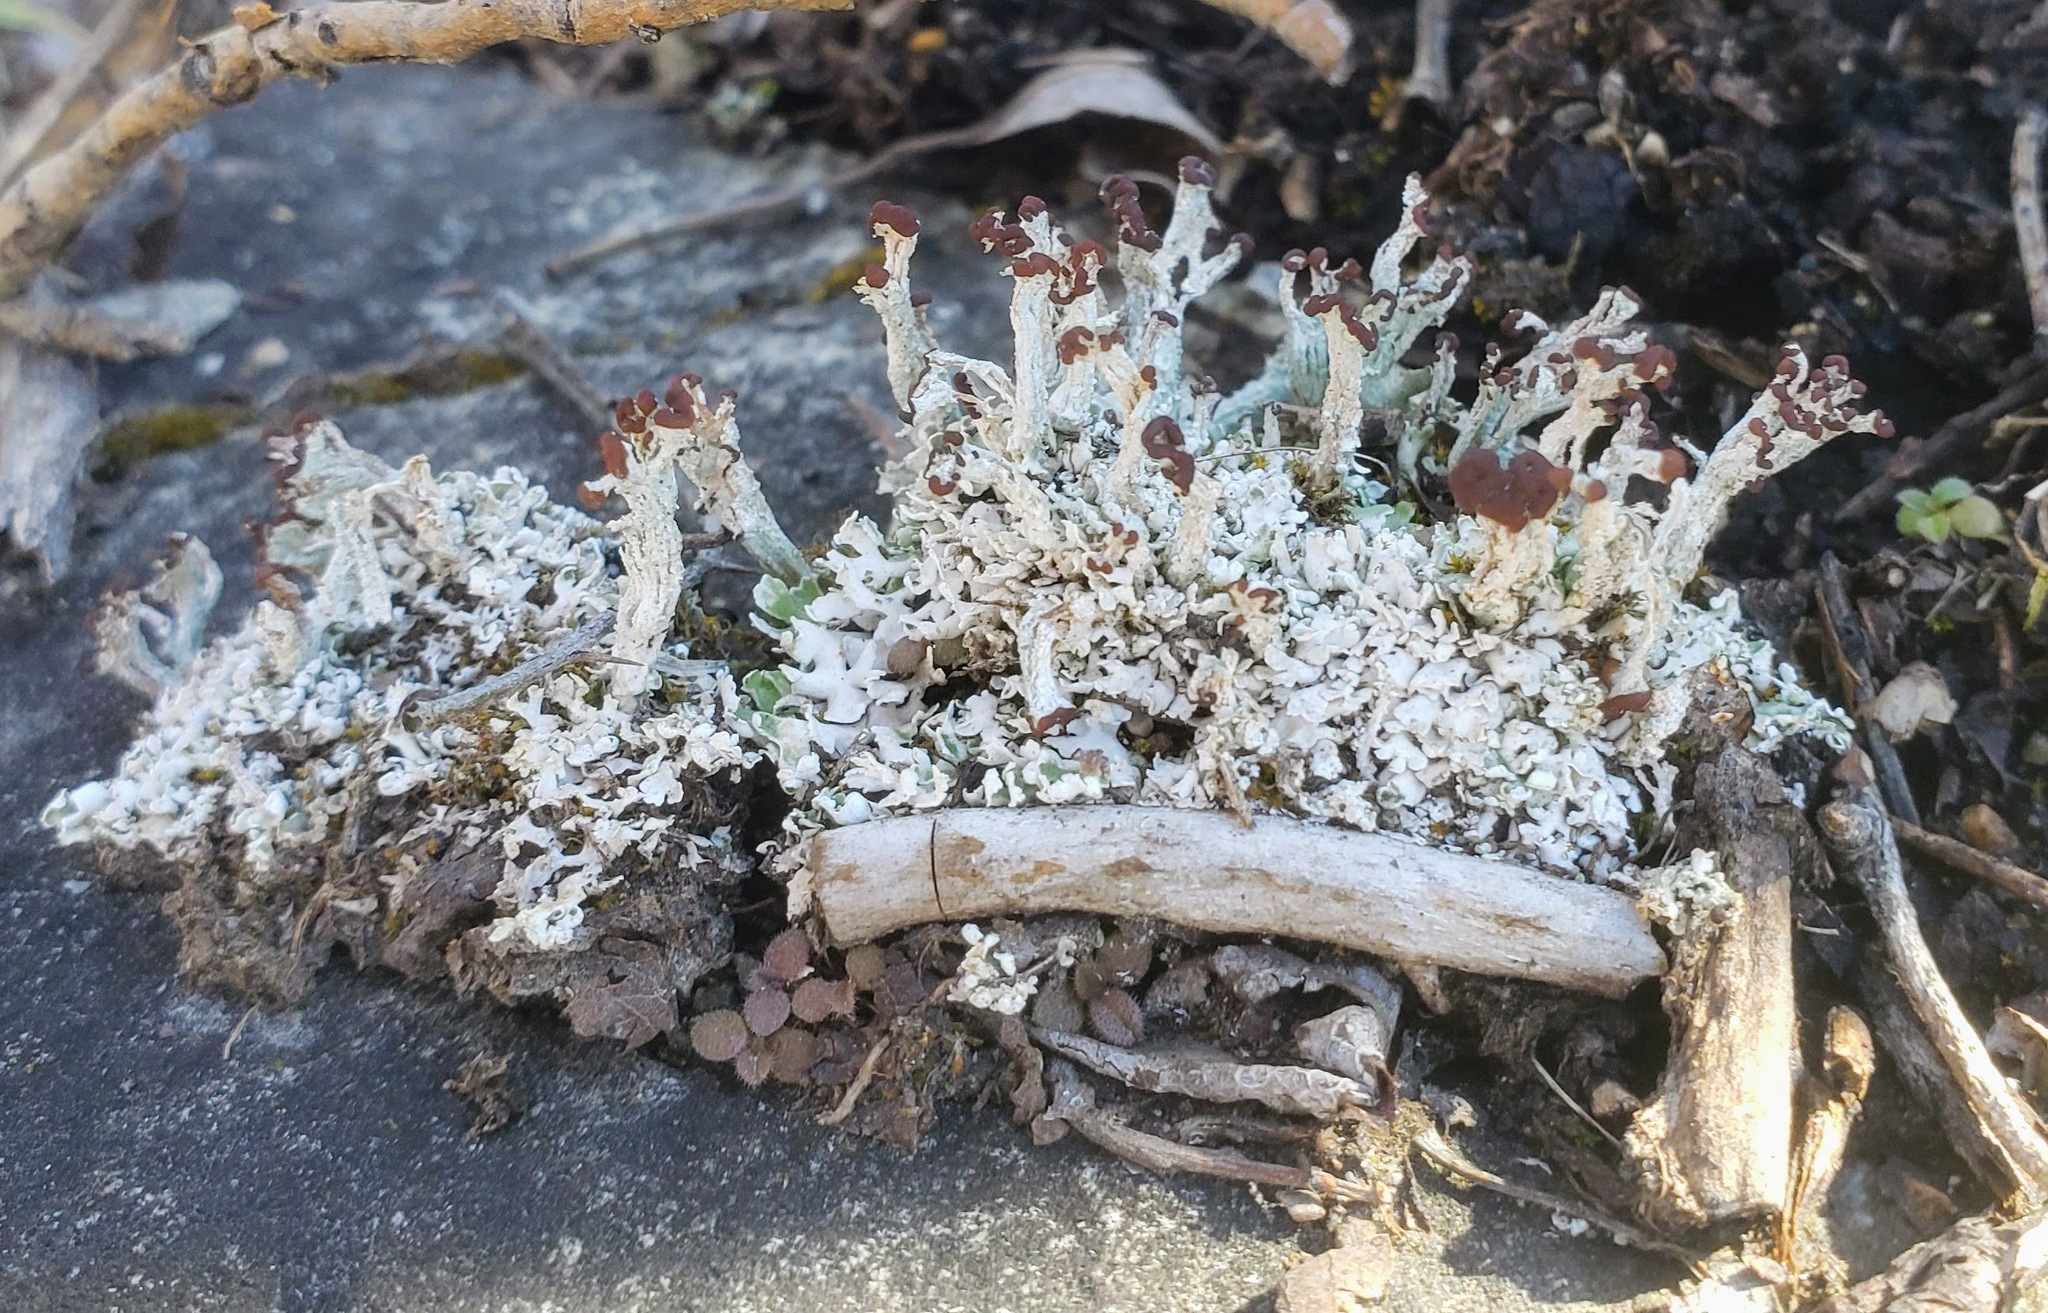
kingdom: Fungi
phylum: Ascomycota
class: Lecanoromycetes
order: Lecanorales
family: Cladoniaceae
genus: Cladonia
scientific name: Cladonia cariosa
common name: Split-peg lichen
